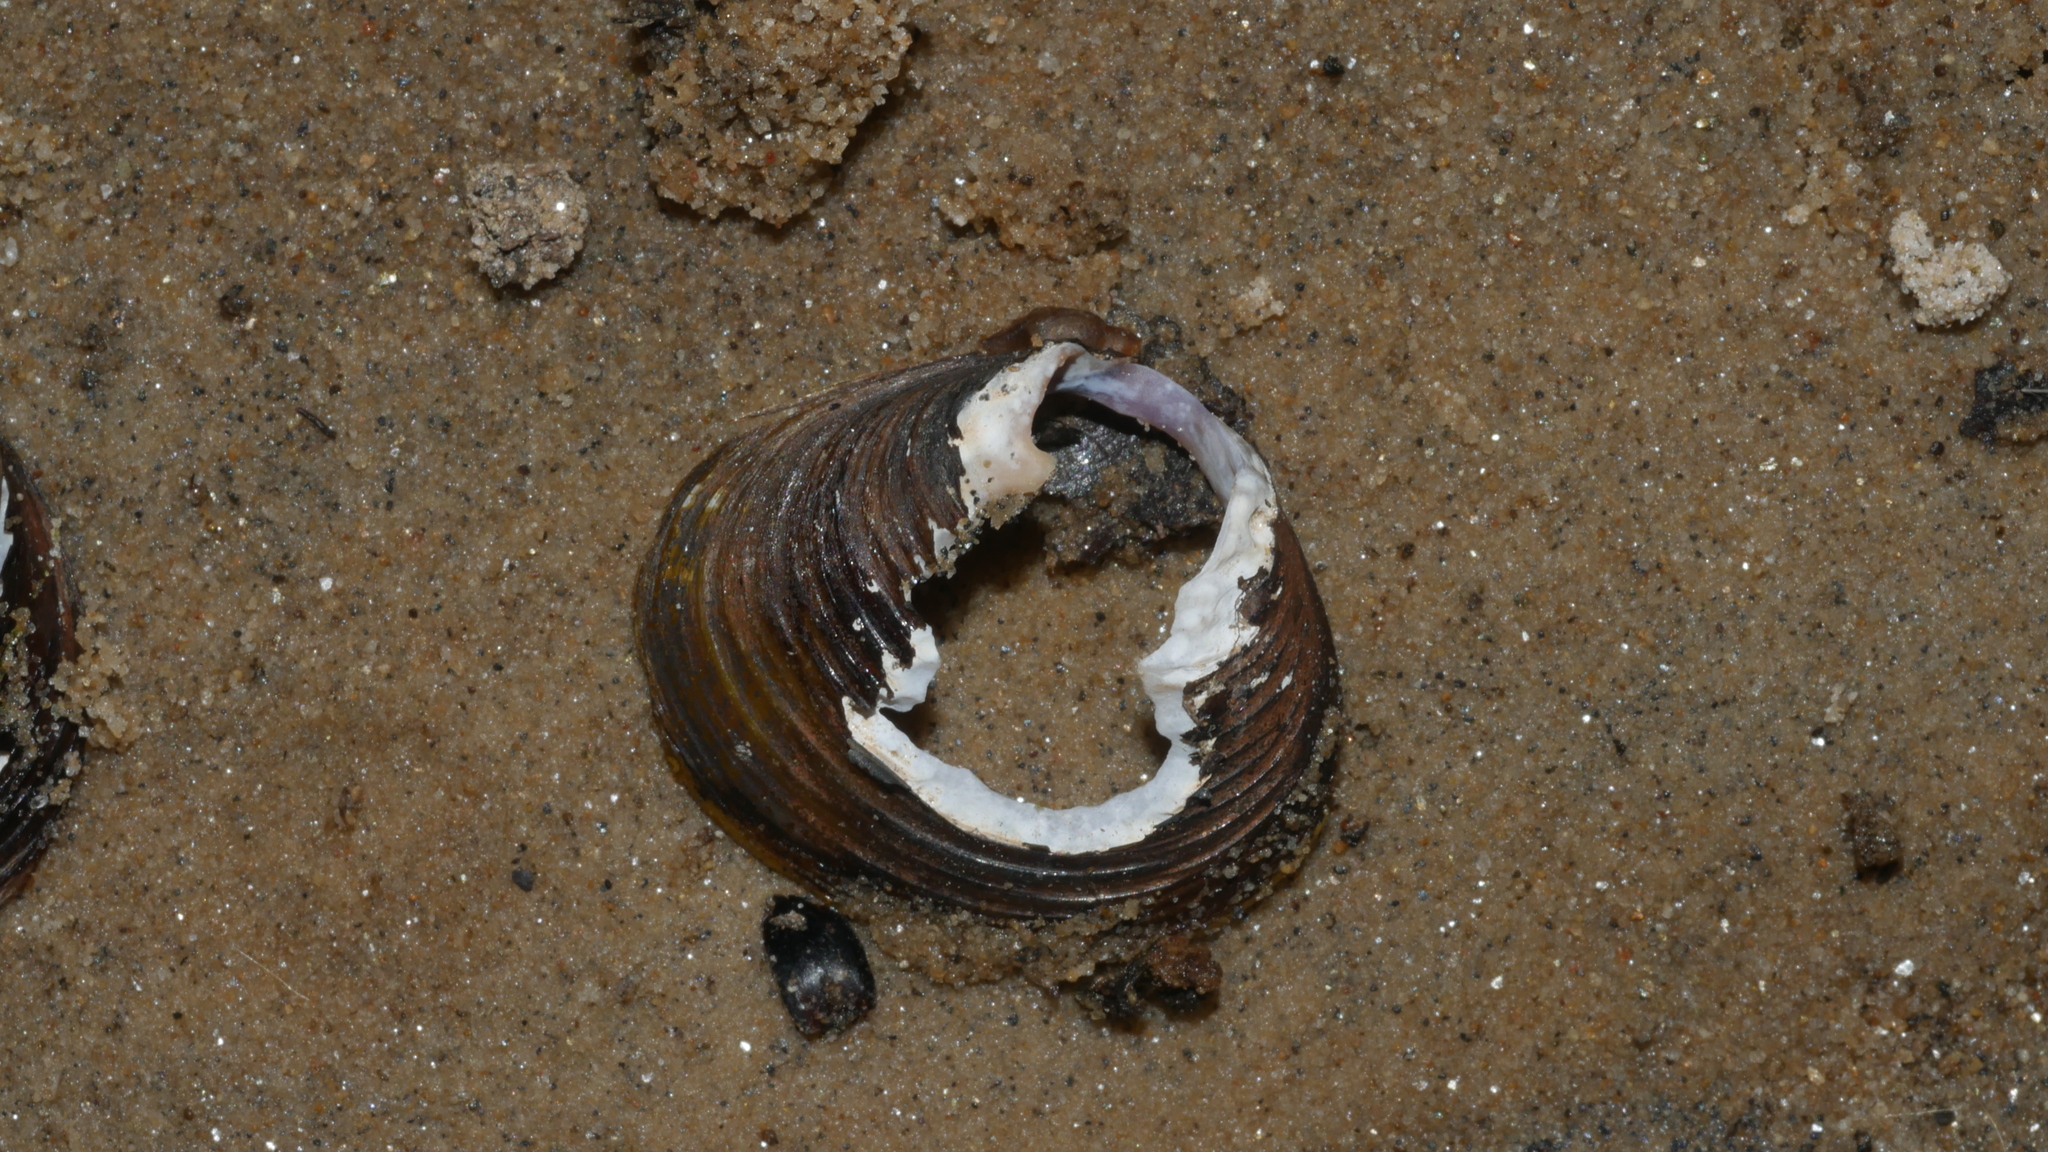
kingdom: Animalia
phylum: Mollusca
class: Bivalvia
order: Venerida
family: Cyrenidae
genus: Corbicula
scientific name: Corbicula fluminea
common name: Asian clam
